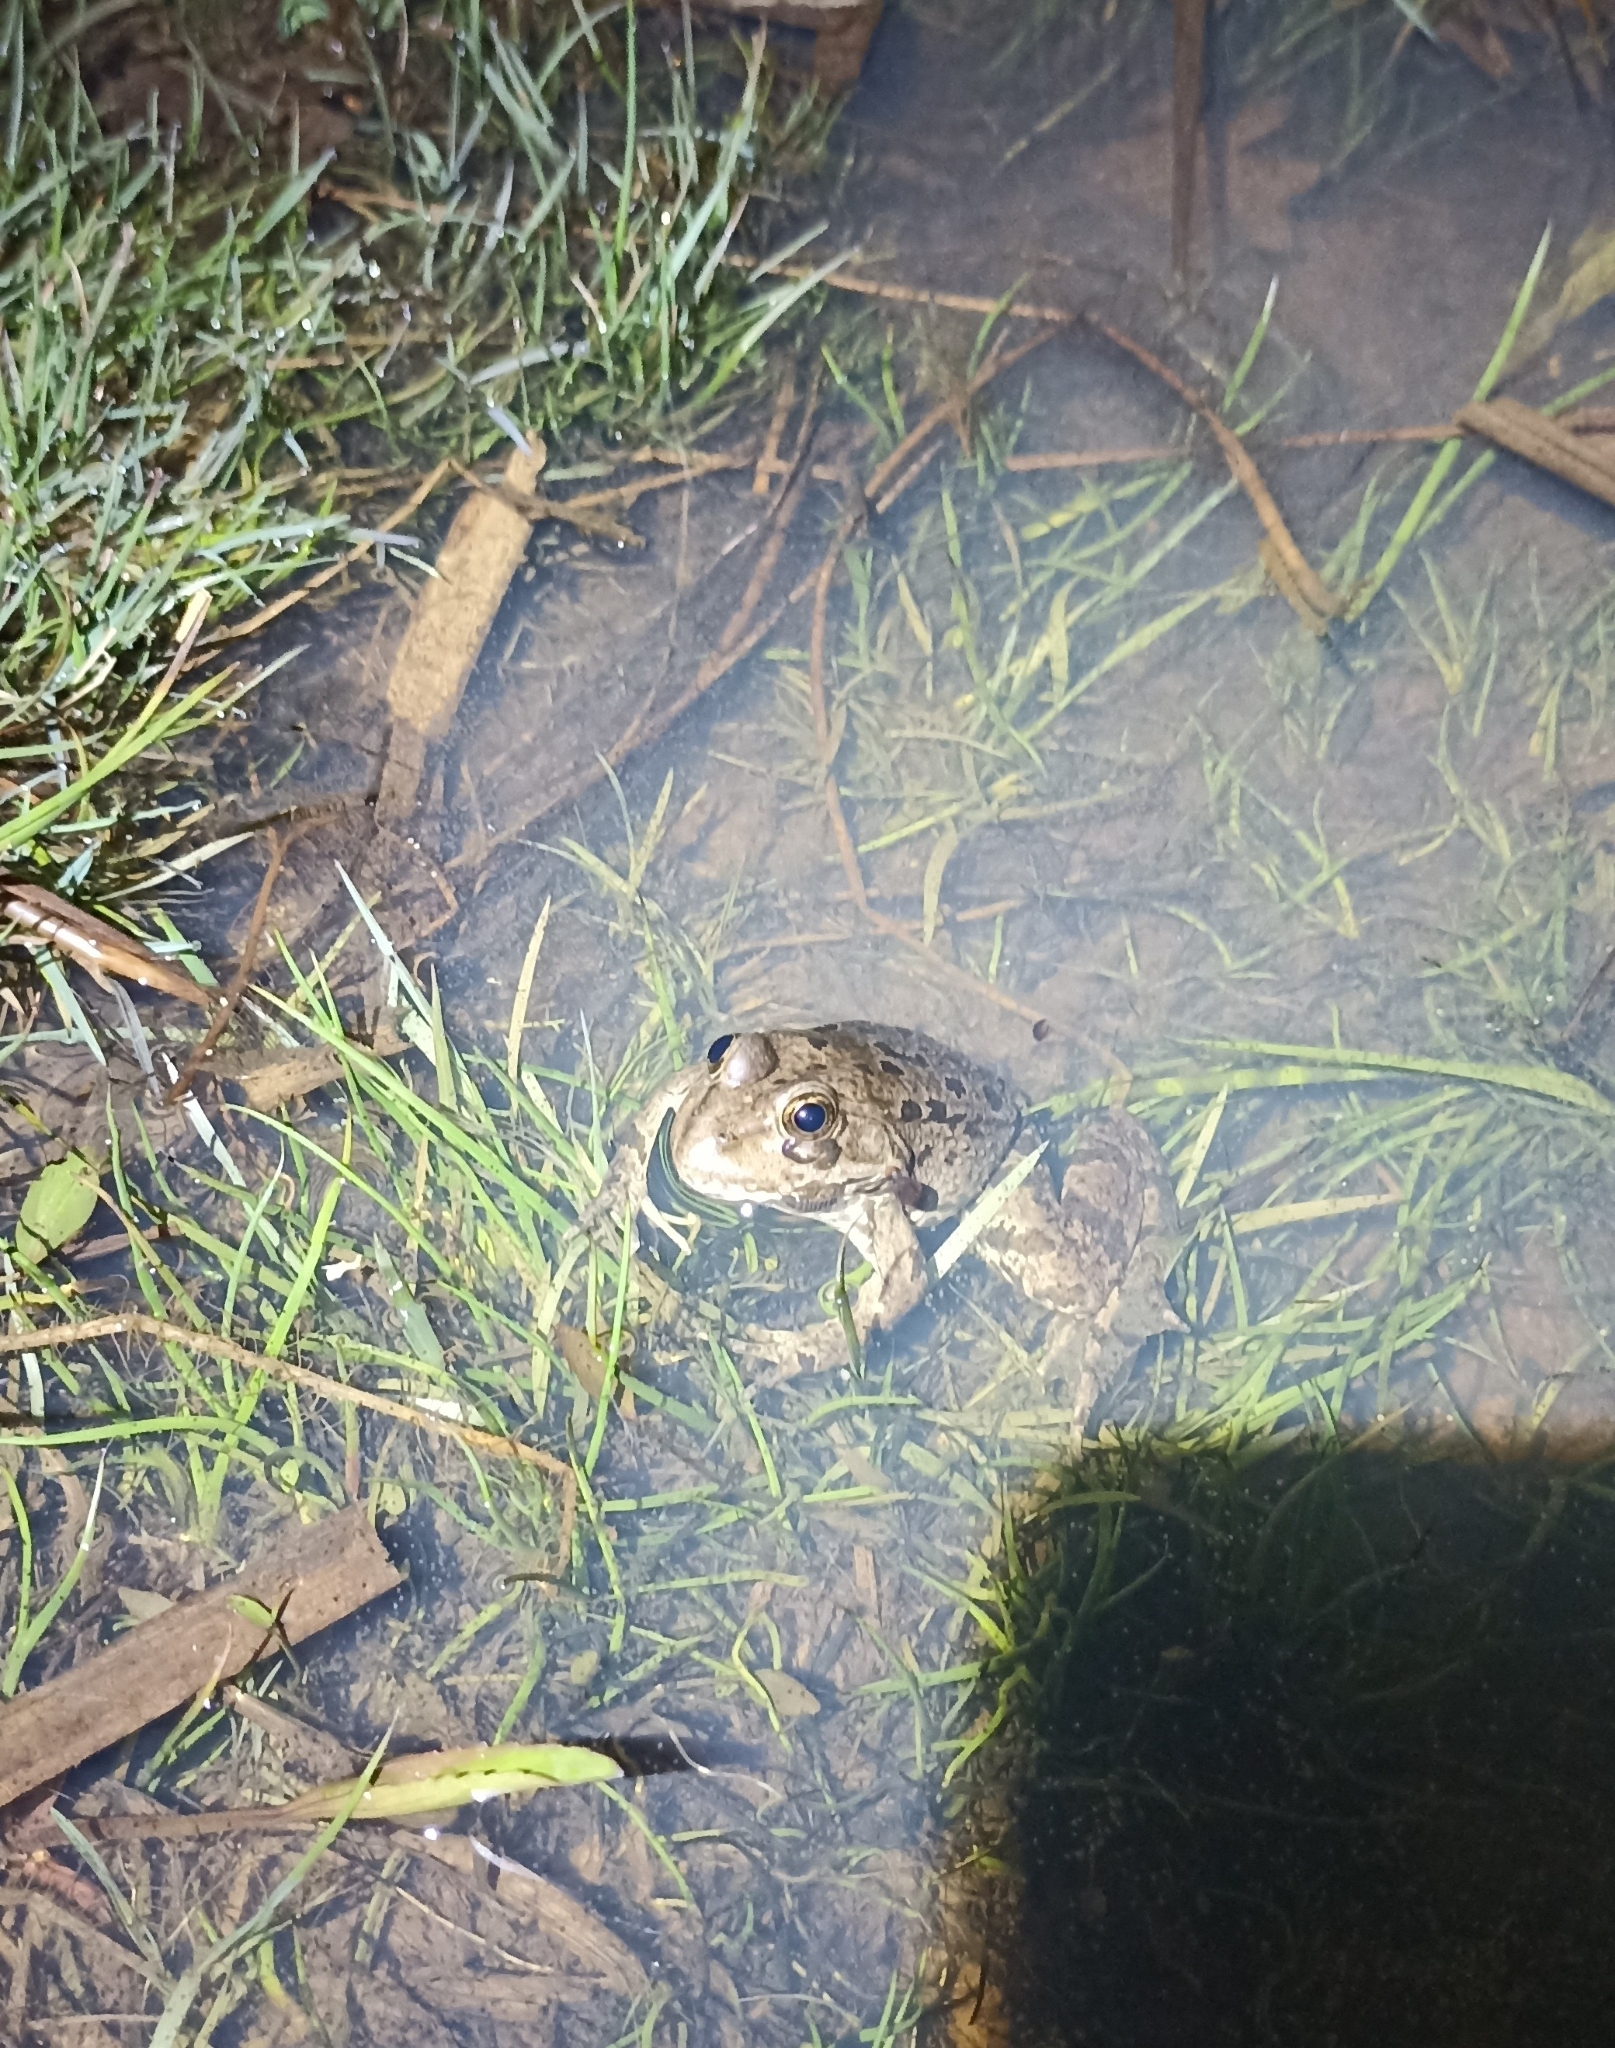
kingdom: Animalia
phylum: Chordata
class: Amphibia
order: Anura
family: Ranidae
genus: Pelophylax
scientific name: Pelophylax
